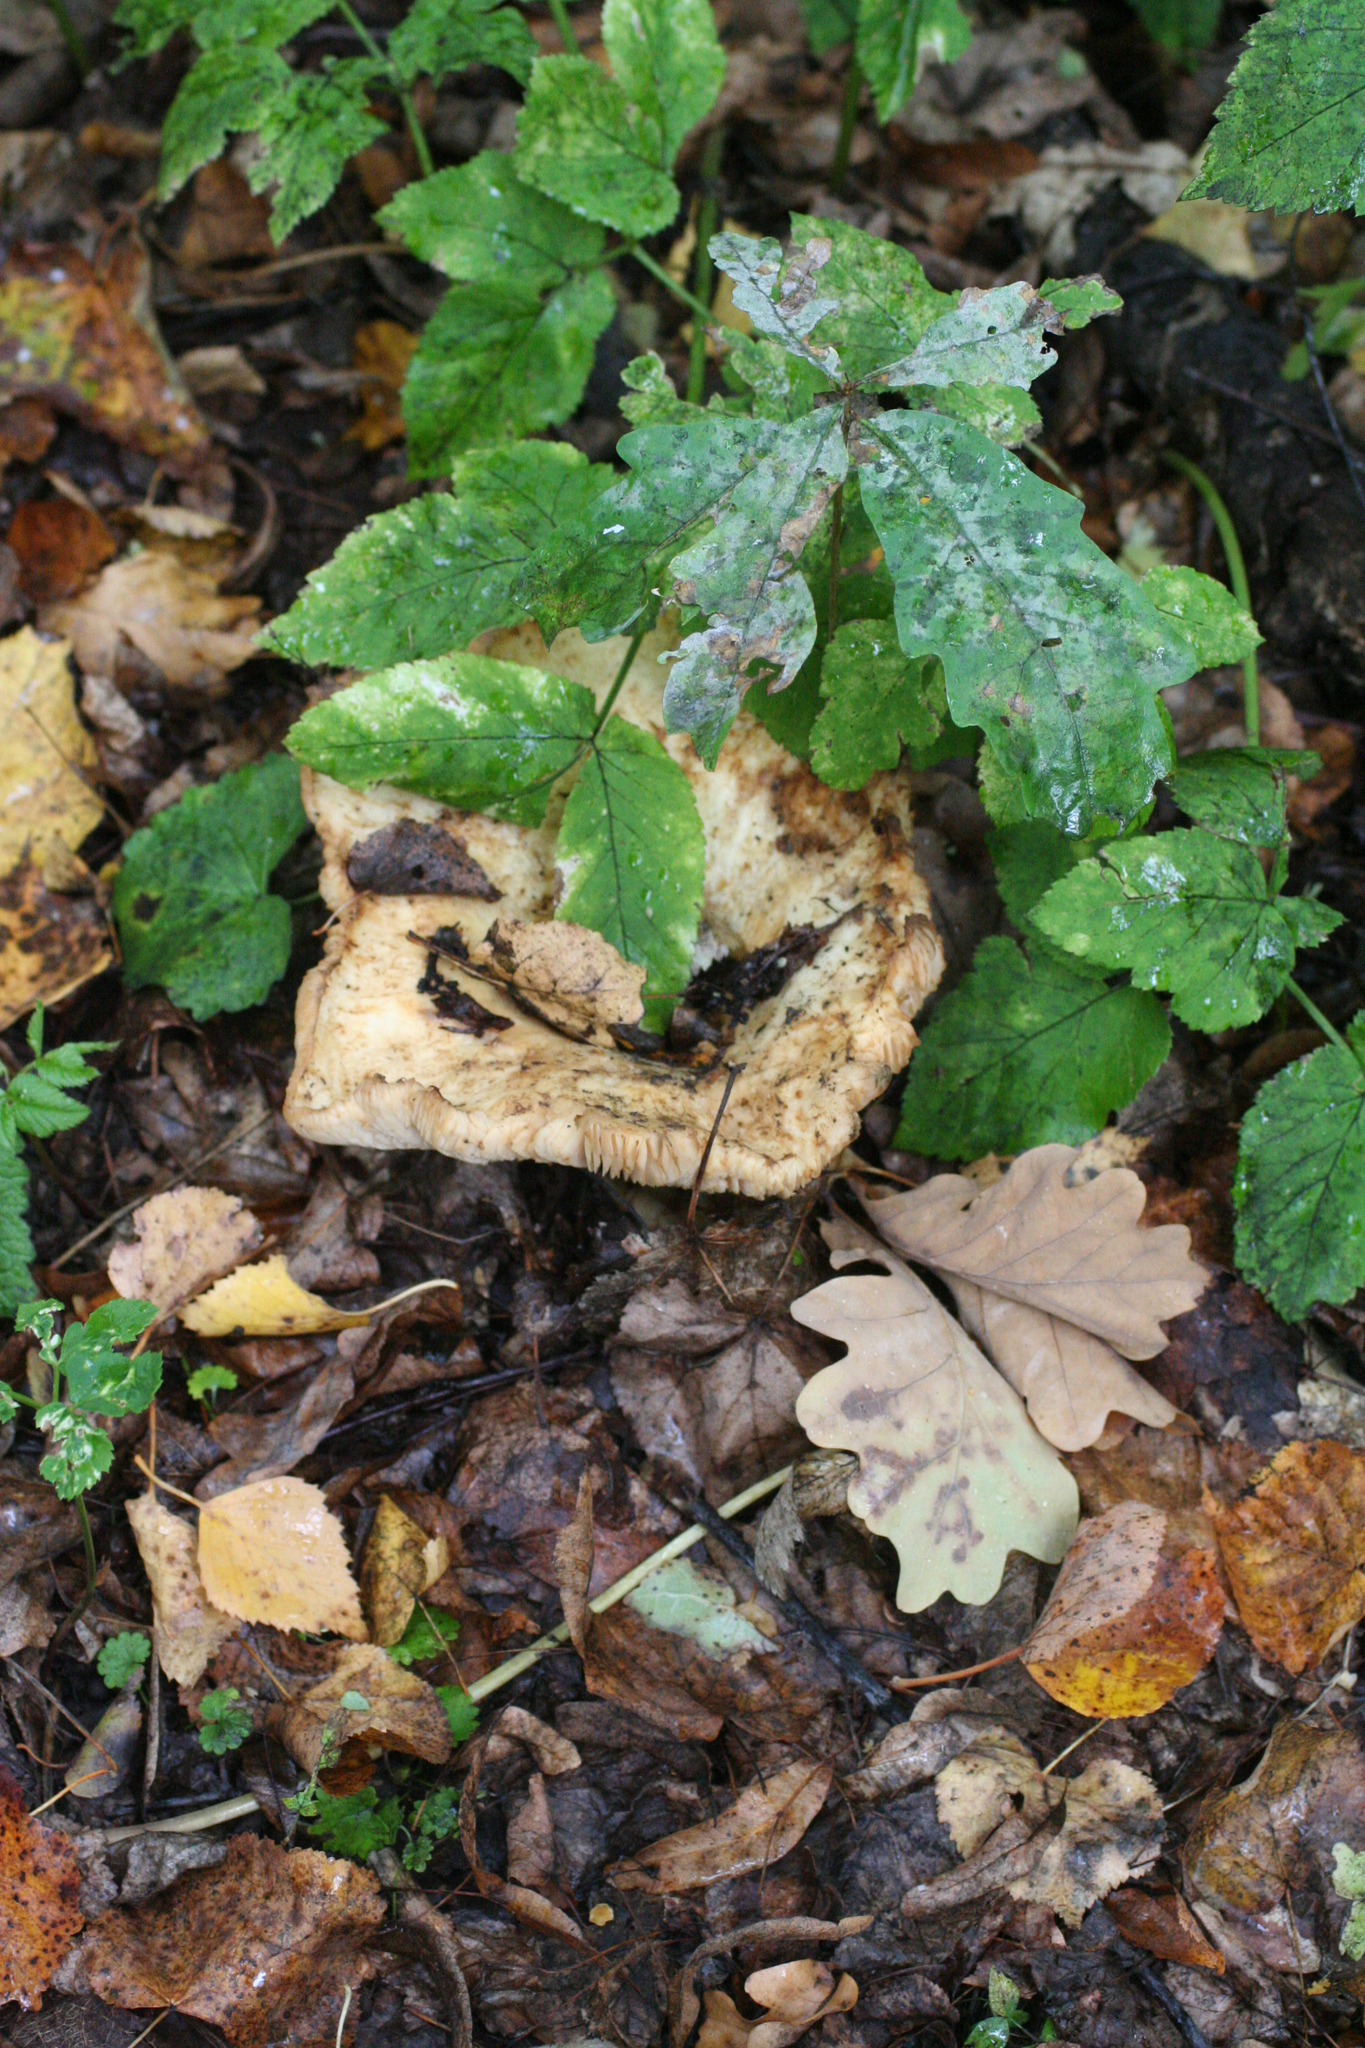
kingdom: Fungi
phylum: Basidiomycota
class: Agaricomycetes
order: Russulales
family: Russulaceae
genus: Lactarius
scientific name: Lactarius resimus
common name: Rollrim milkcap
